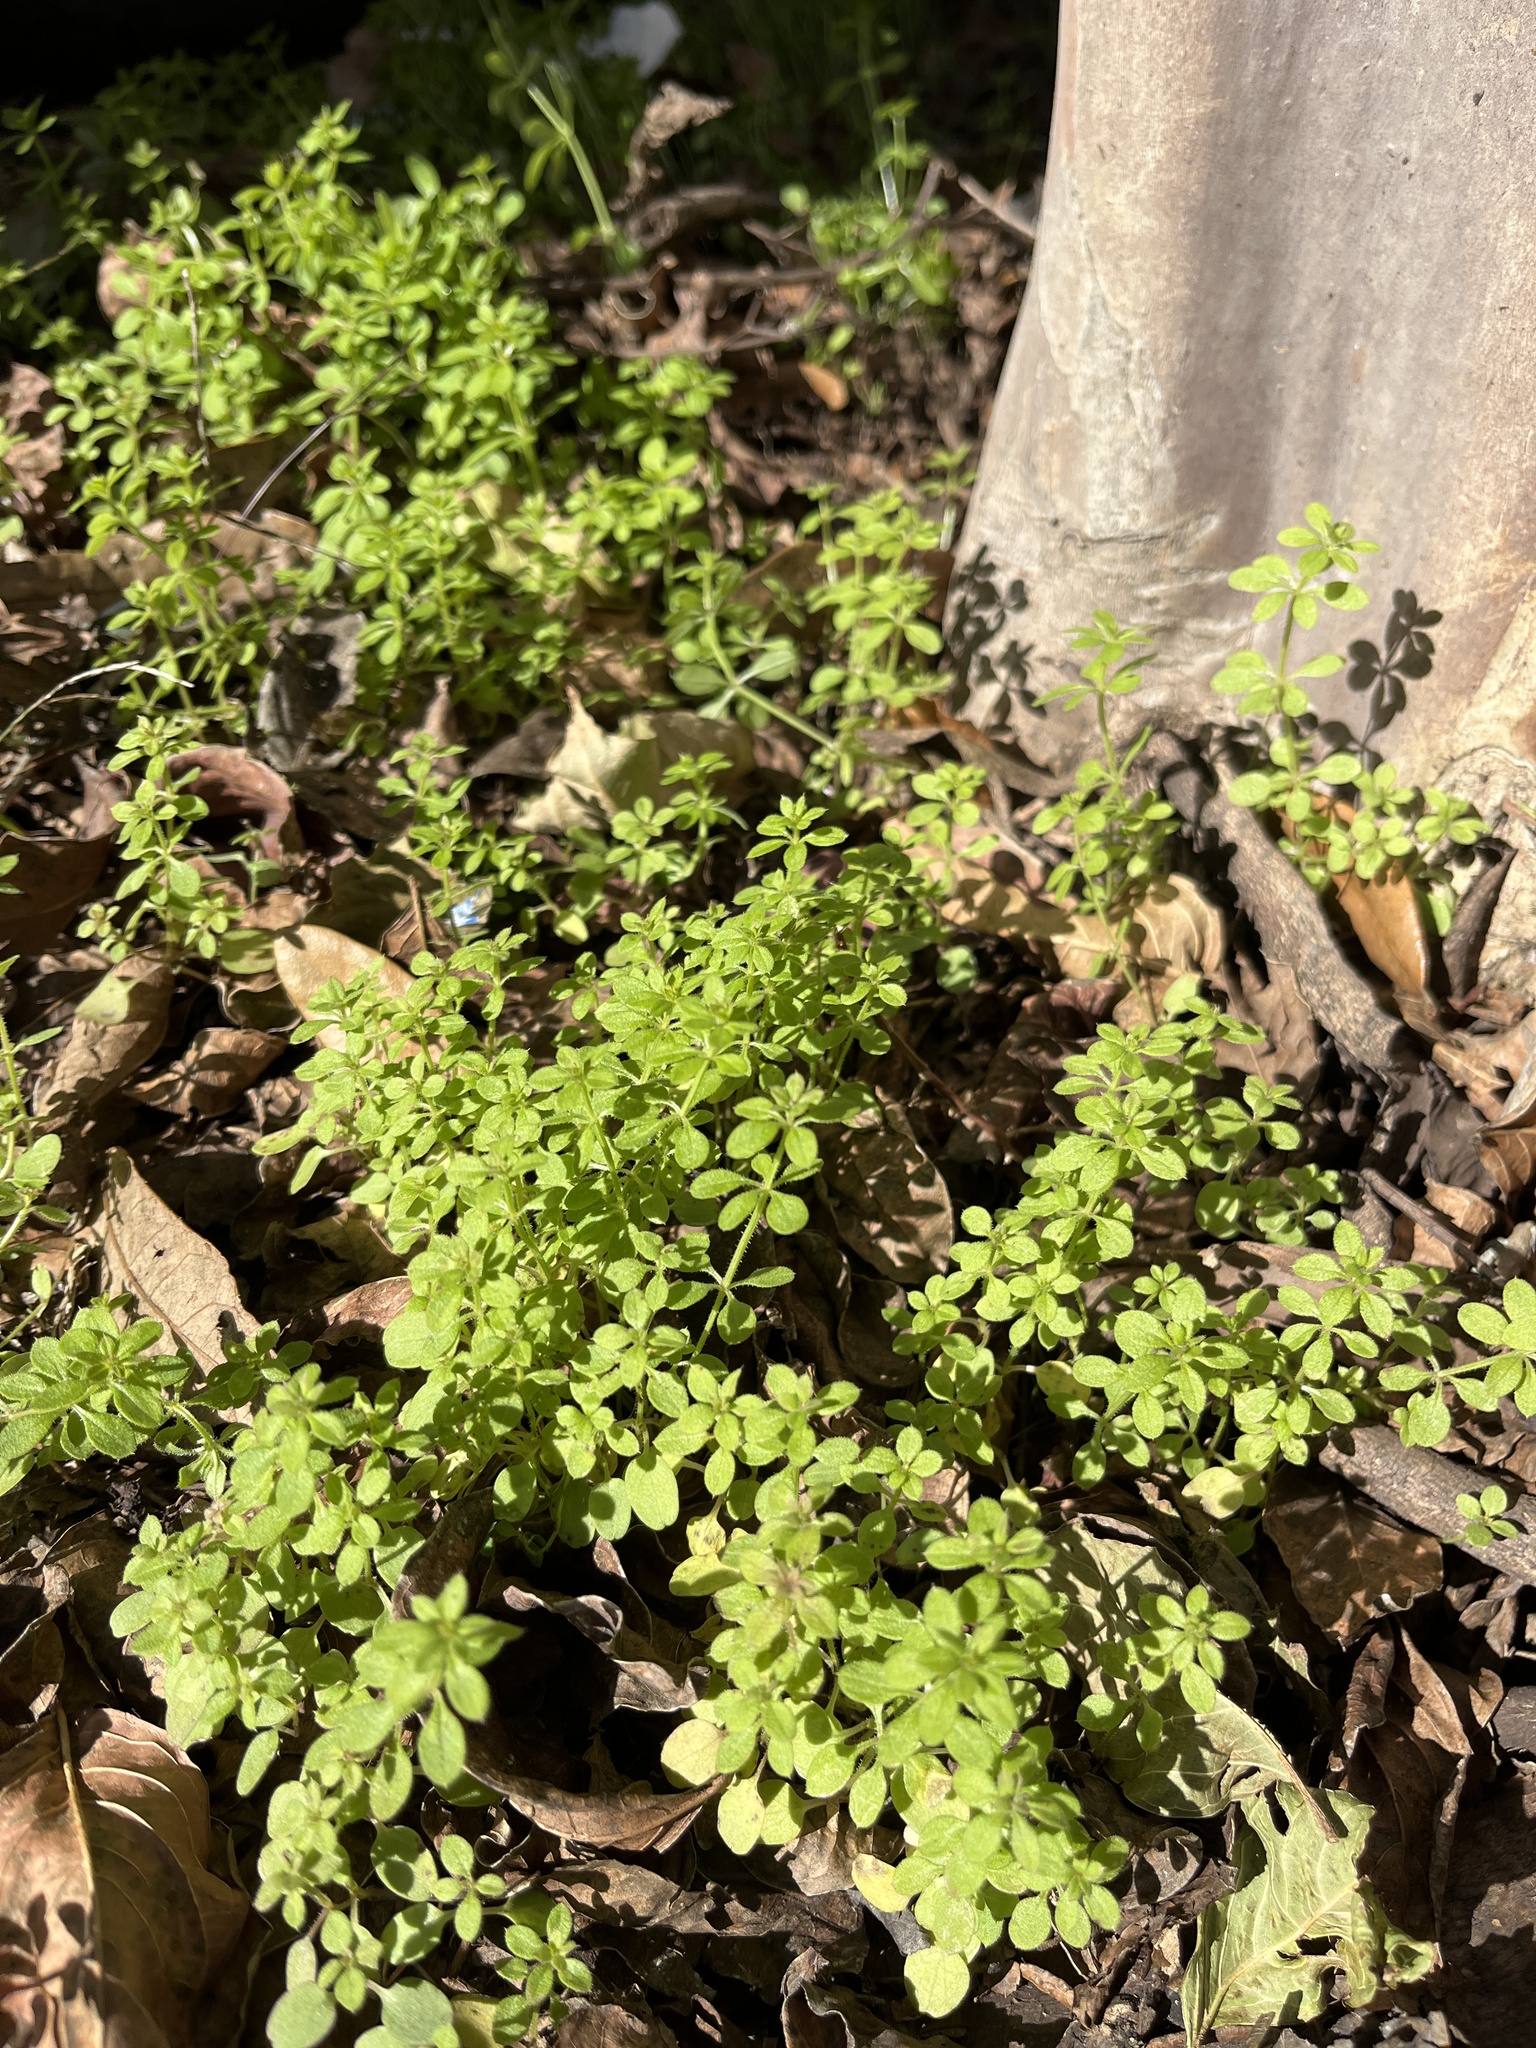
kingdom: Plantae
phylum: Tracheophyta
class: Magnoliopsida
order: Gentianales
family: Rubiaceae
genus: Galium
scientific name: Galium aparine
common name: Cleavers
